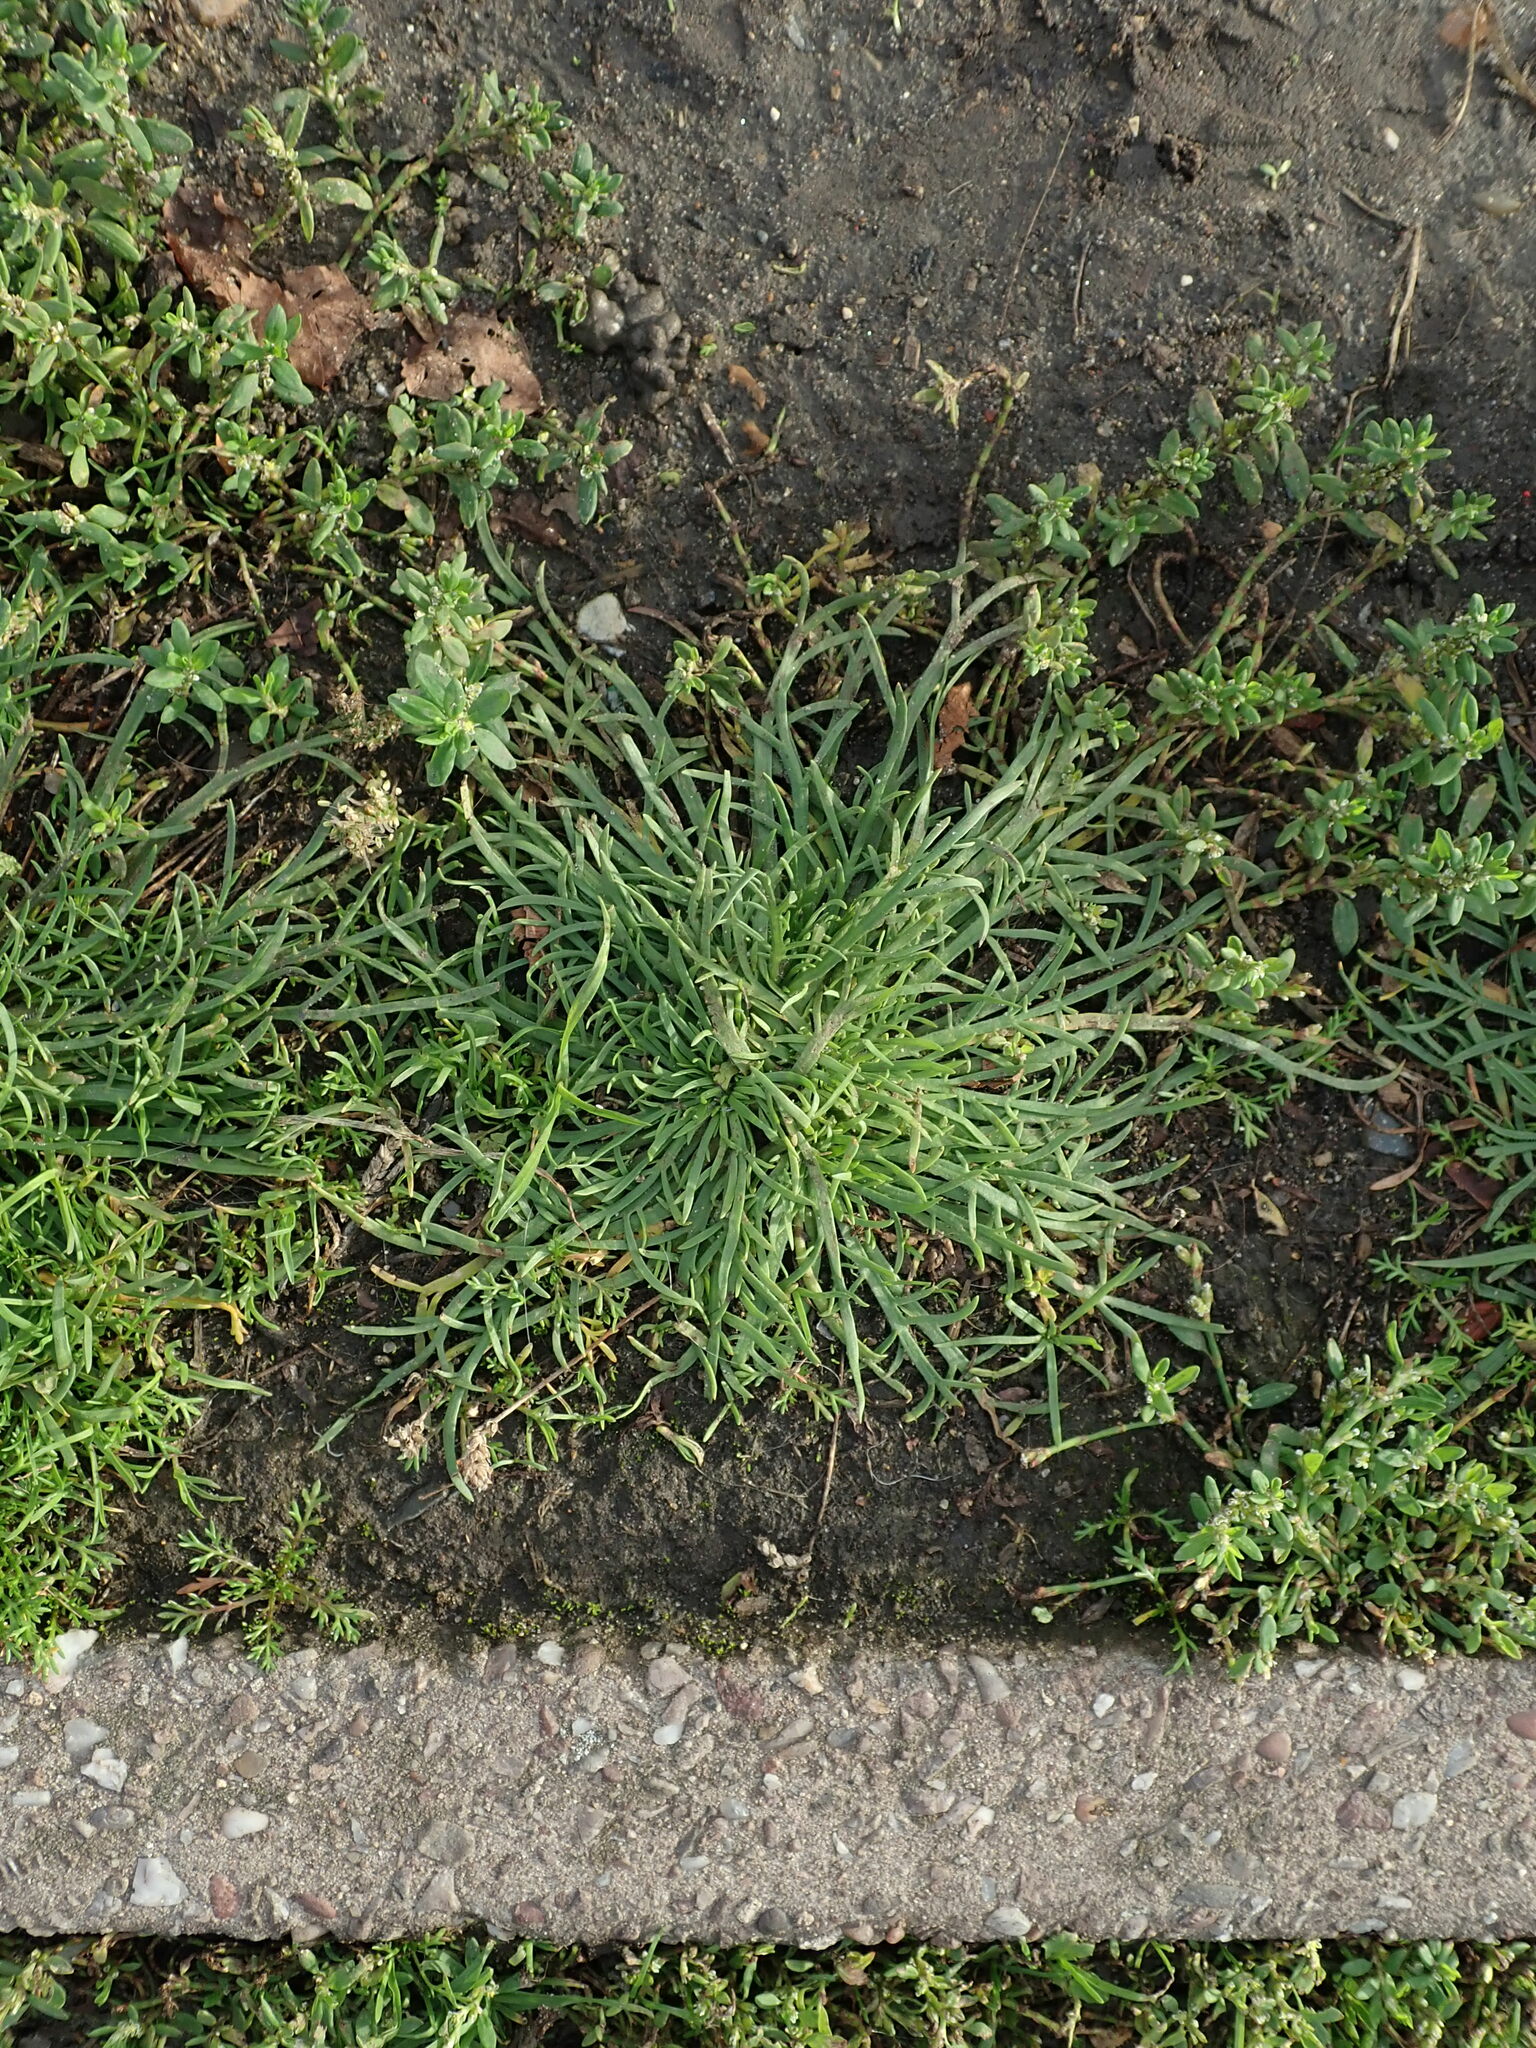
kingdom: Plantae
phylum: Tracheophyta
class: Magnoliopsida
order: Lamiales
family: Plantaginaceae
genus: Plantago
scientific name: Plantago coronopus
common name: Buck's-horn plantain
